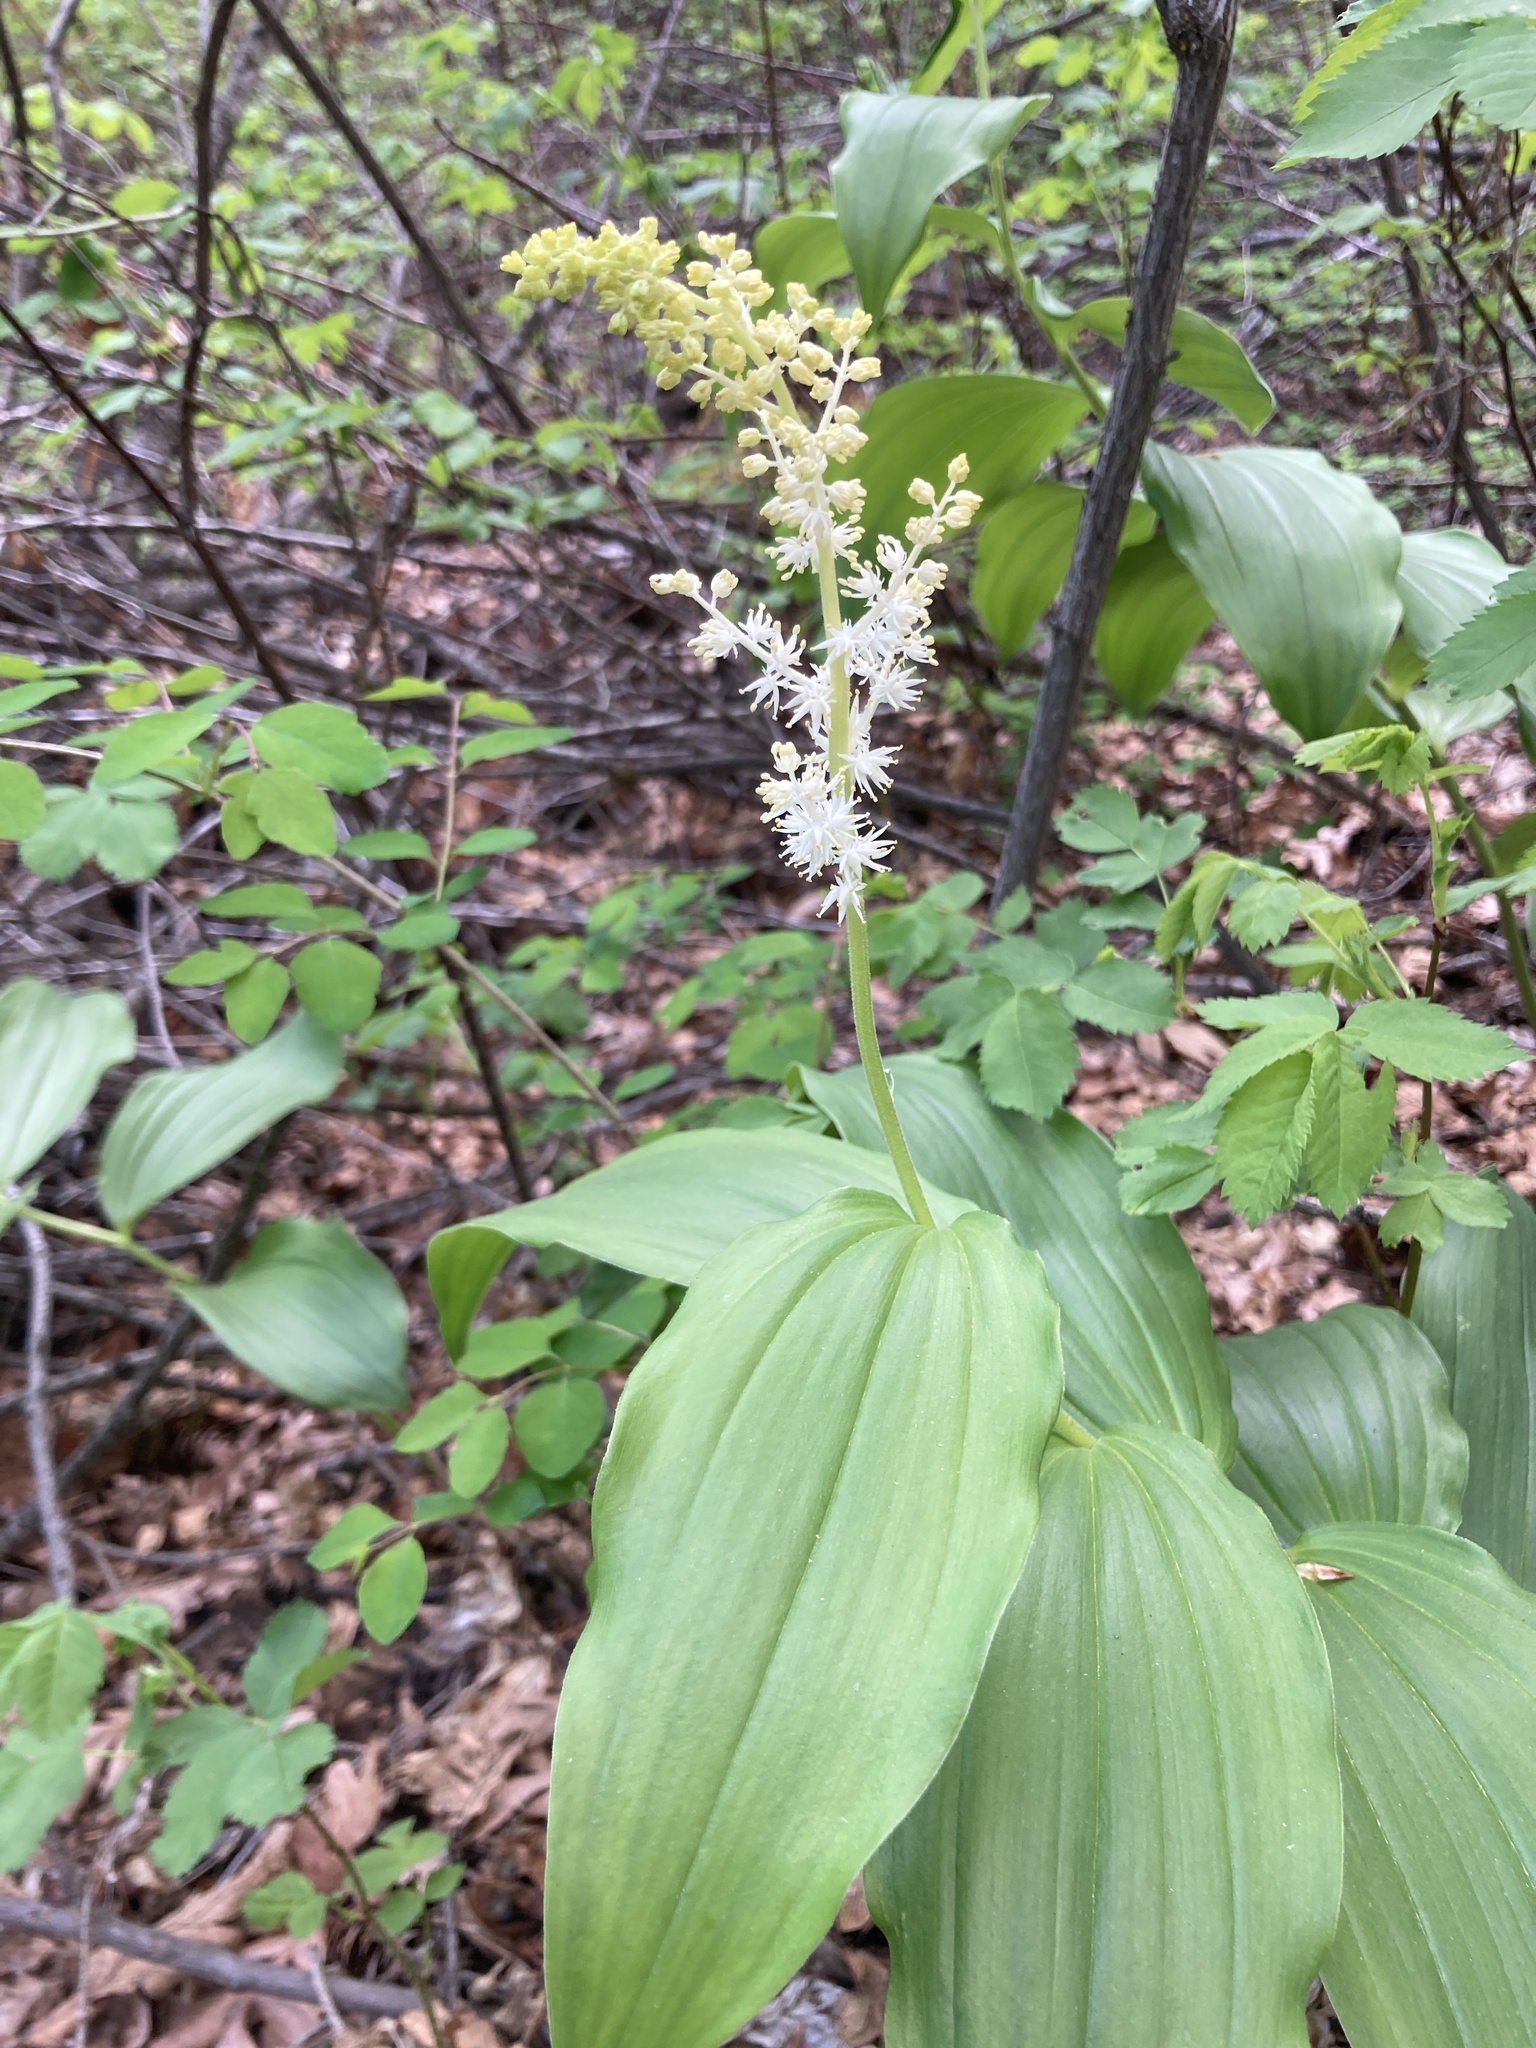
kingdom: Plantae
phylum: Tracheophyta
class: Liliopsida
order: Asparagales
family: Asparagaceae
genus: Maianthemum
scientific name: Maianthemum racemosum
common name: False spikenard
